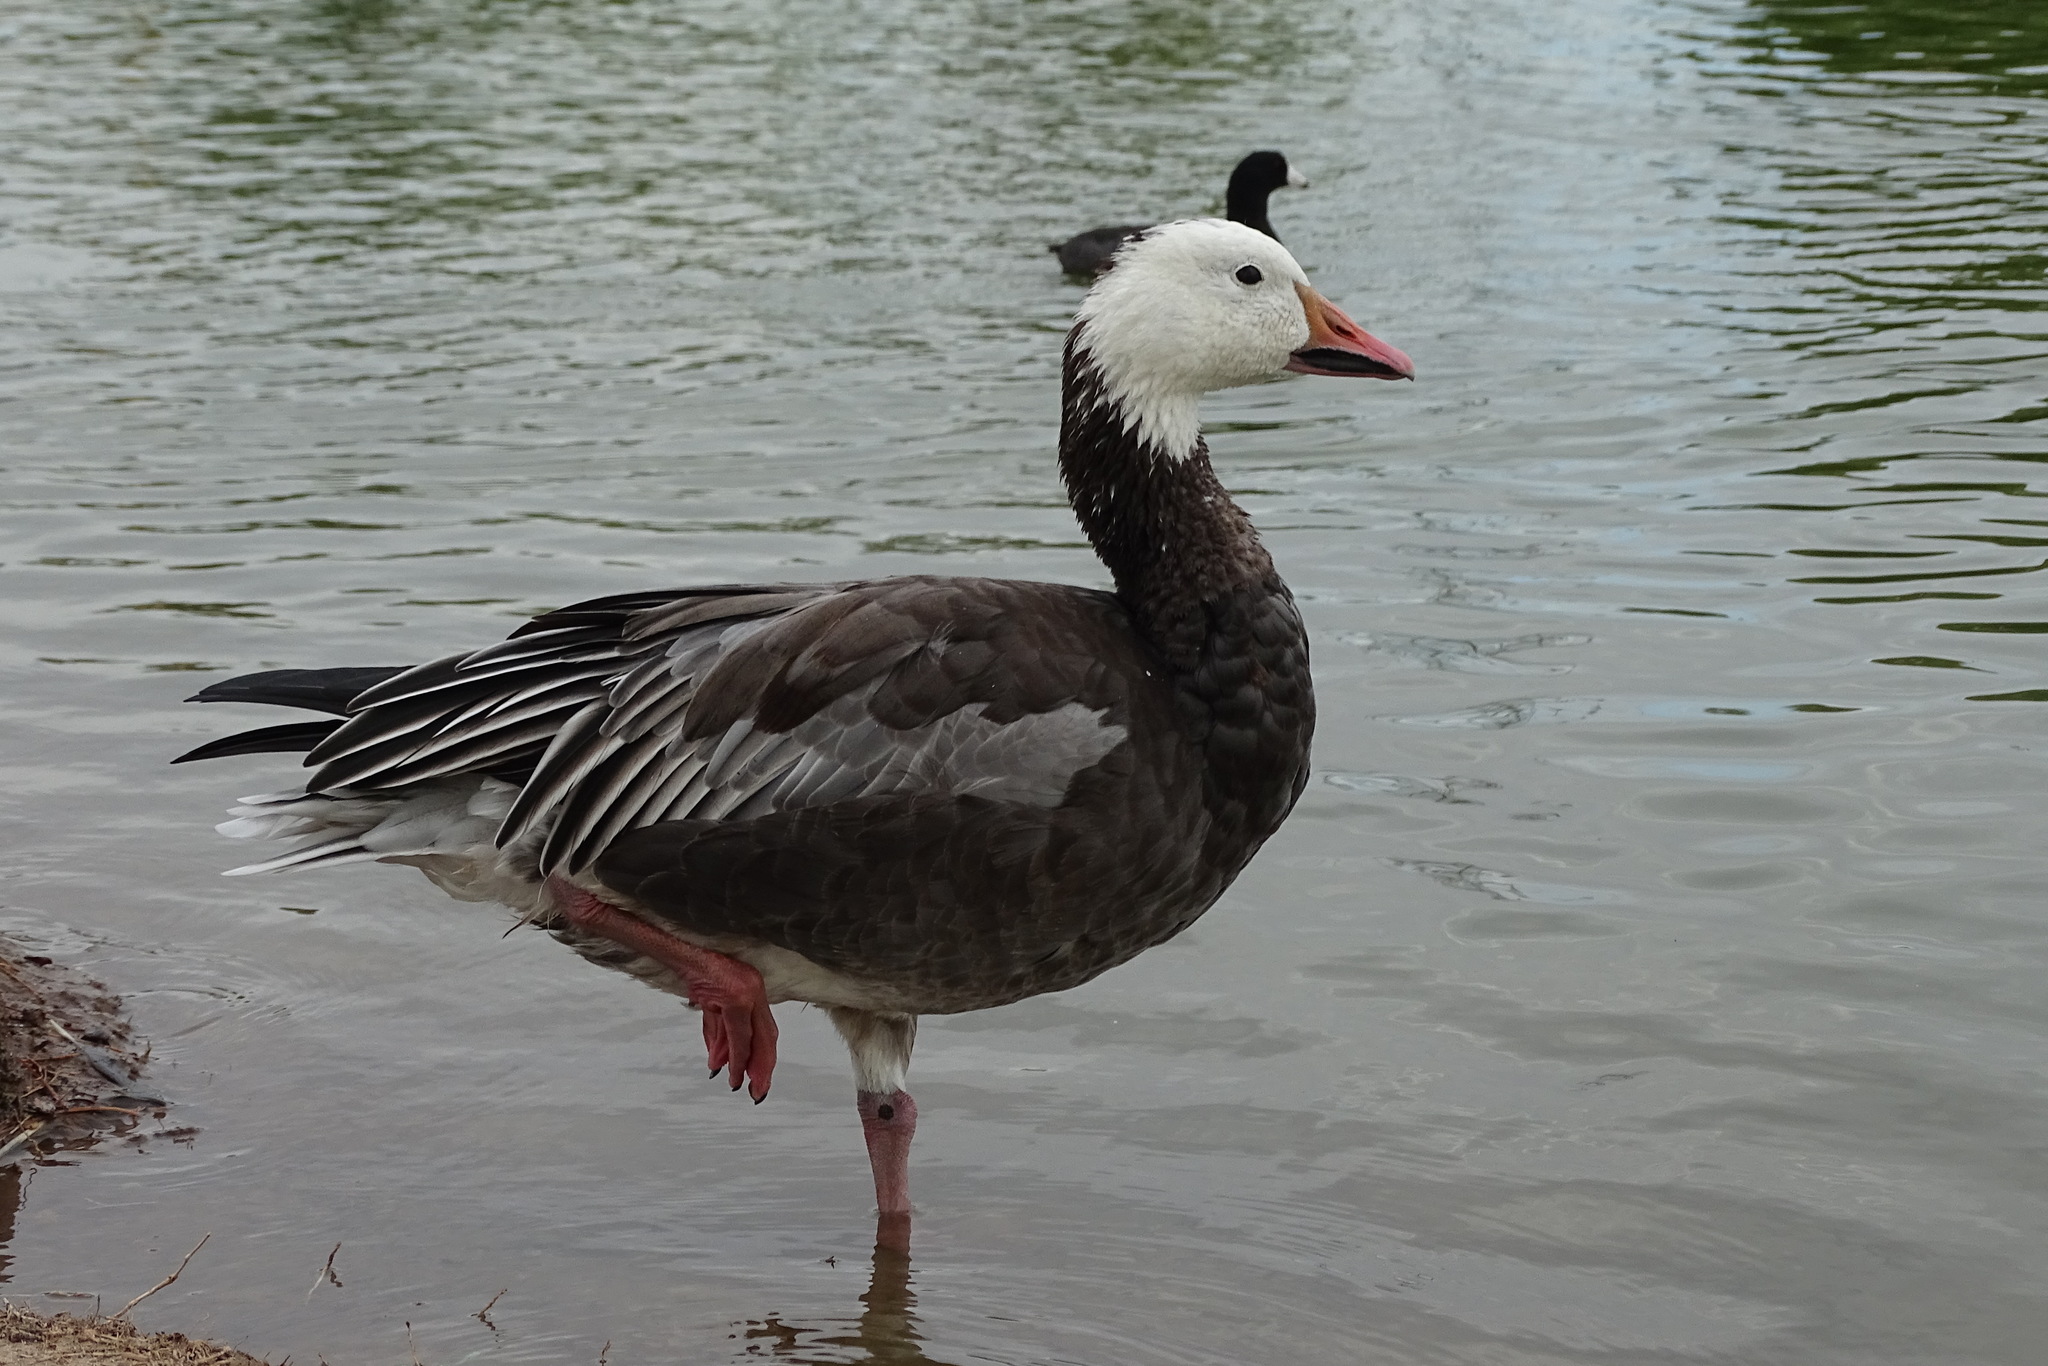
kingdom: Animalia
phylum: Chordata
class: Aves
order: Anseriformes
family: Anatidae
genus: Anser
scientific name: Anser caerulescens
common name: Snow goose
